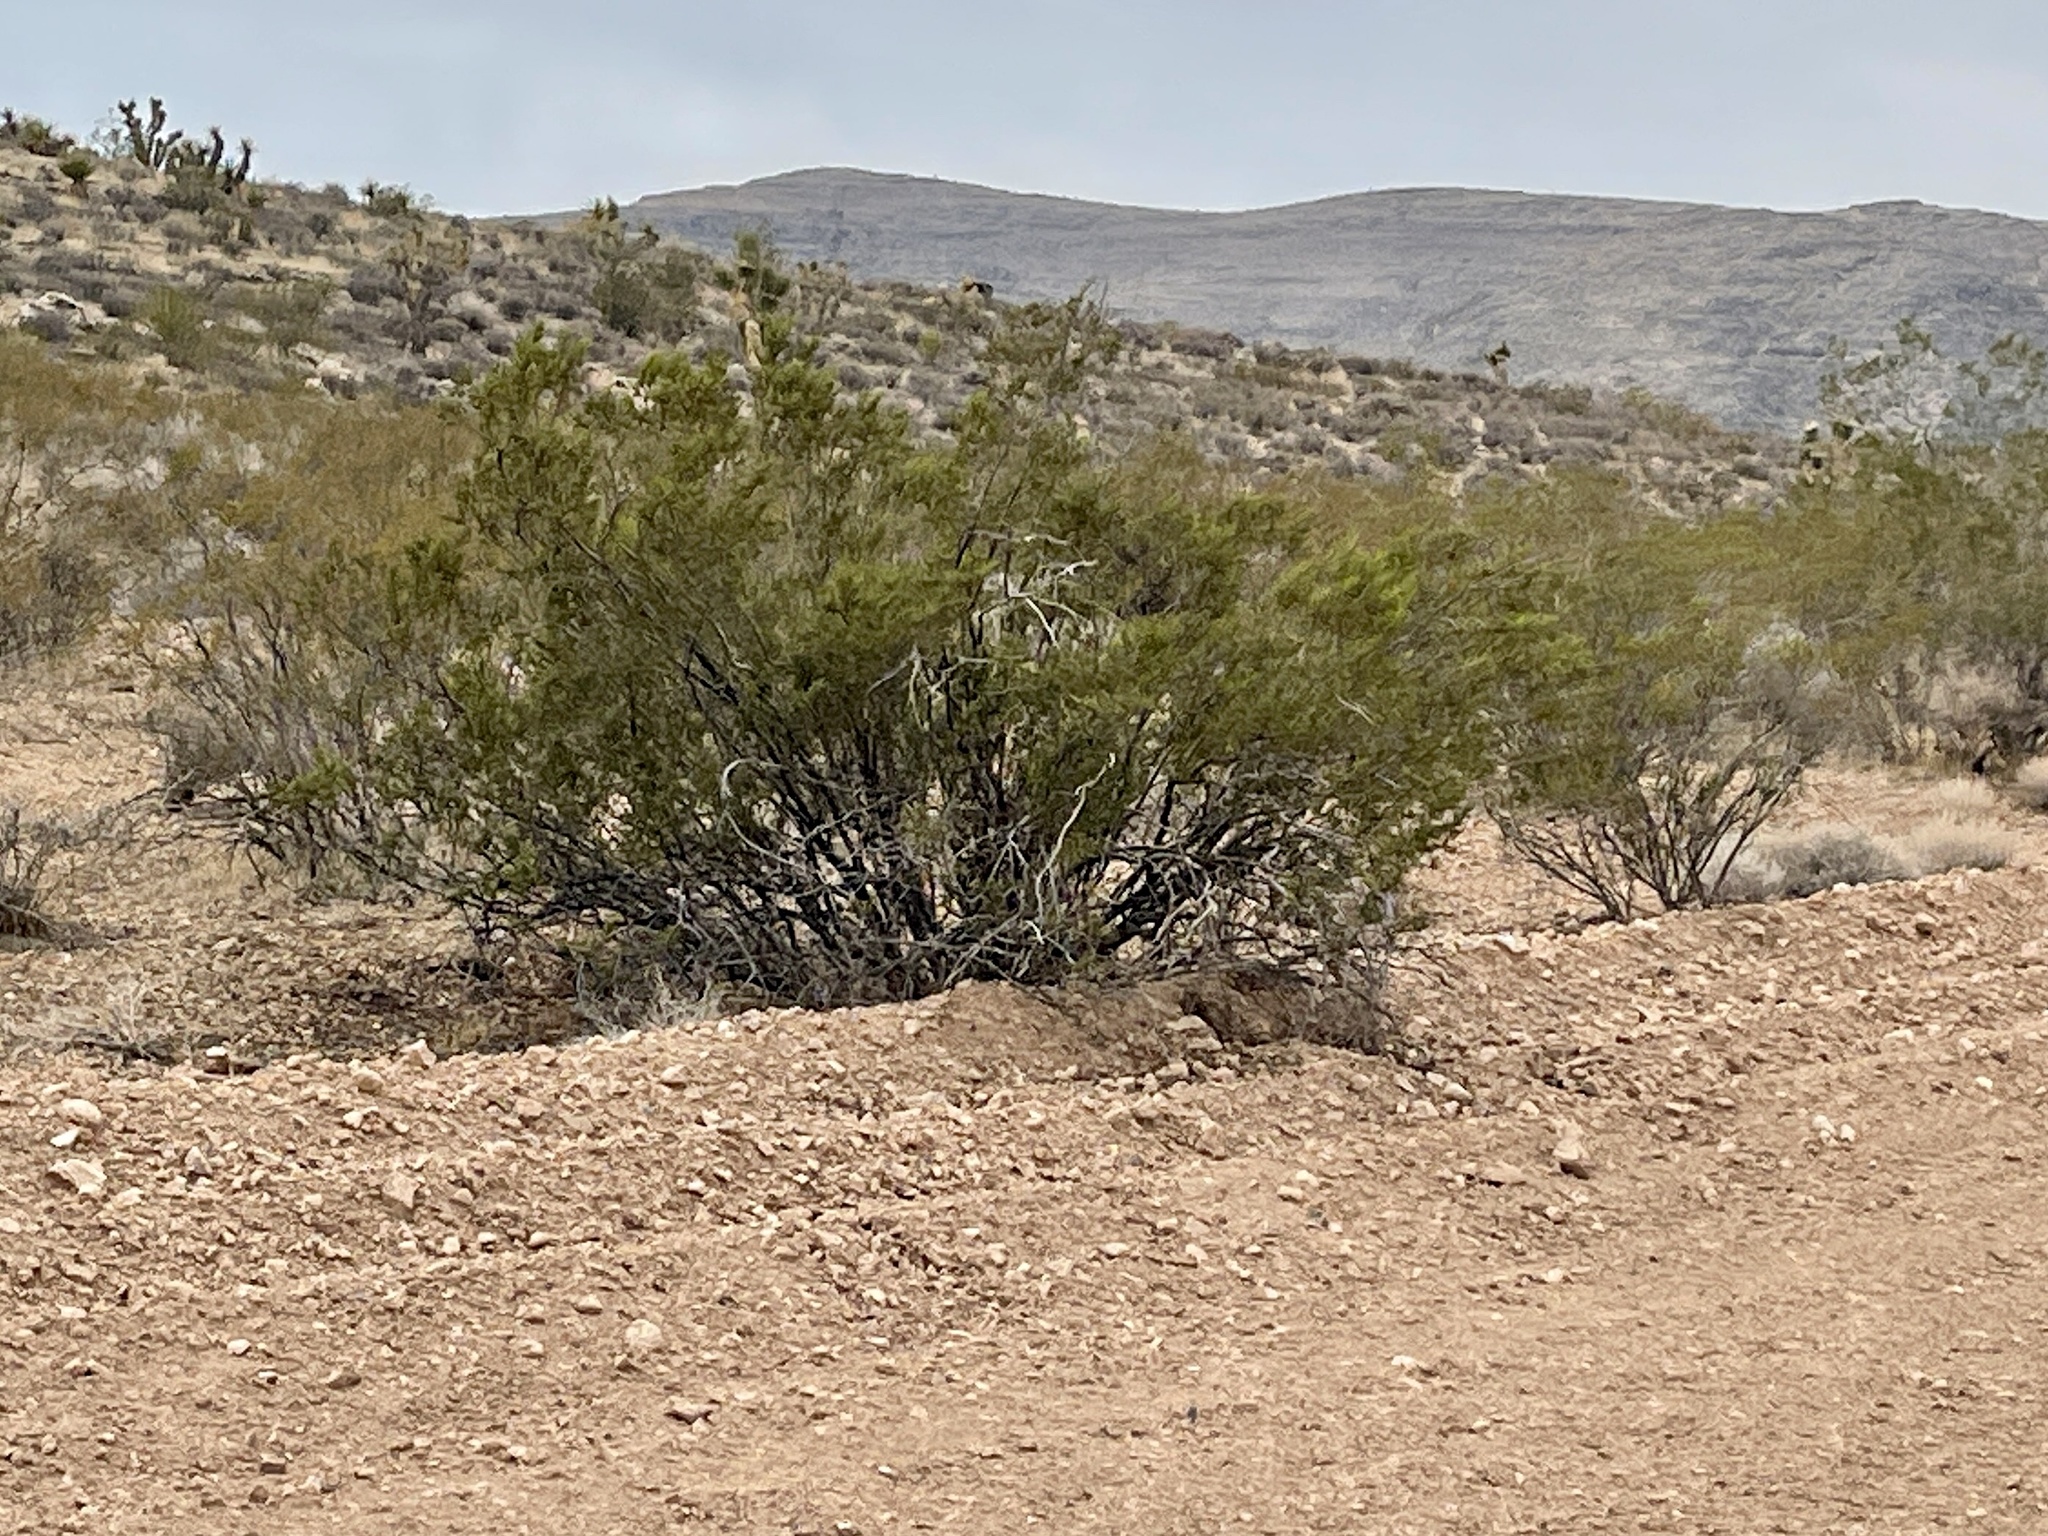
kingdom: Plantae
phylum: Tracheophyta
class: Magnoliopsida
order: Zygophyllales
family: Zygophyllaceae
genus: Larrea
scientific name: Larrea tridentata
